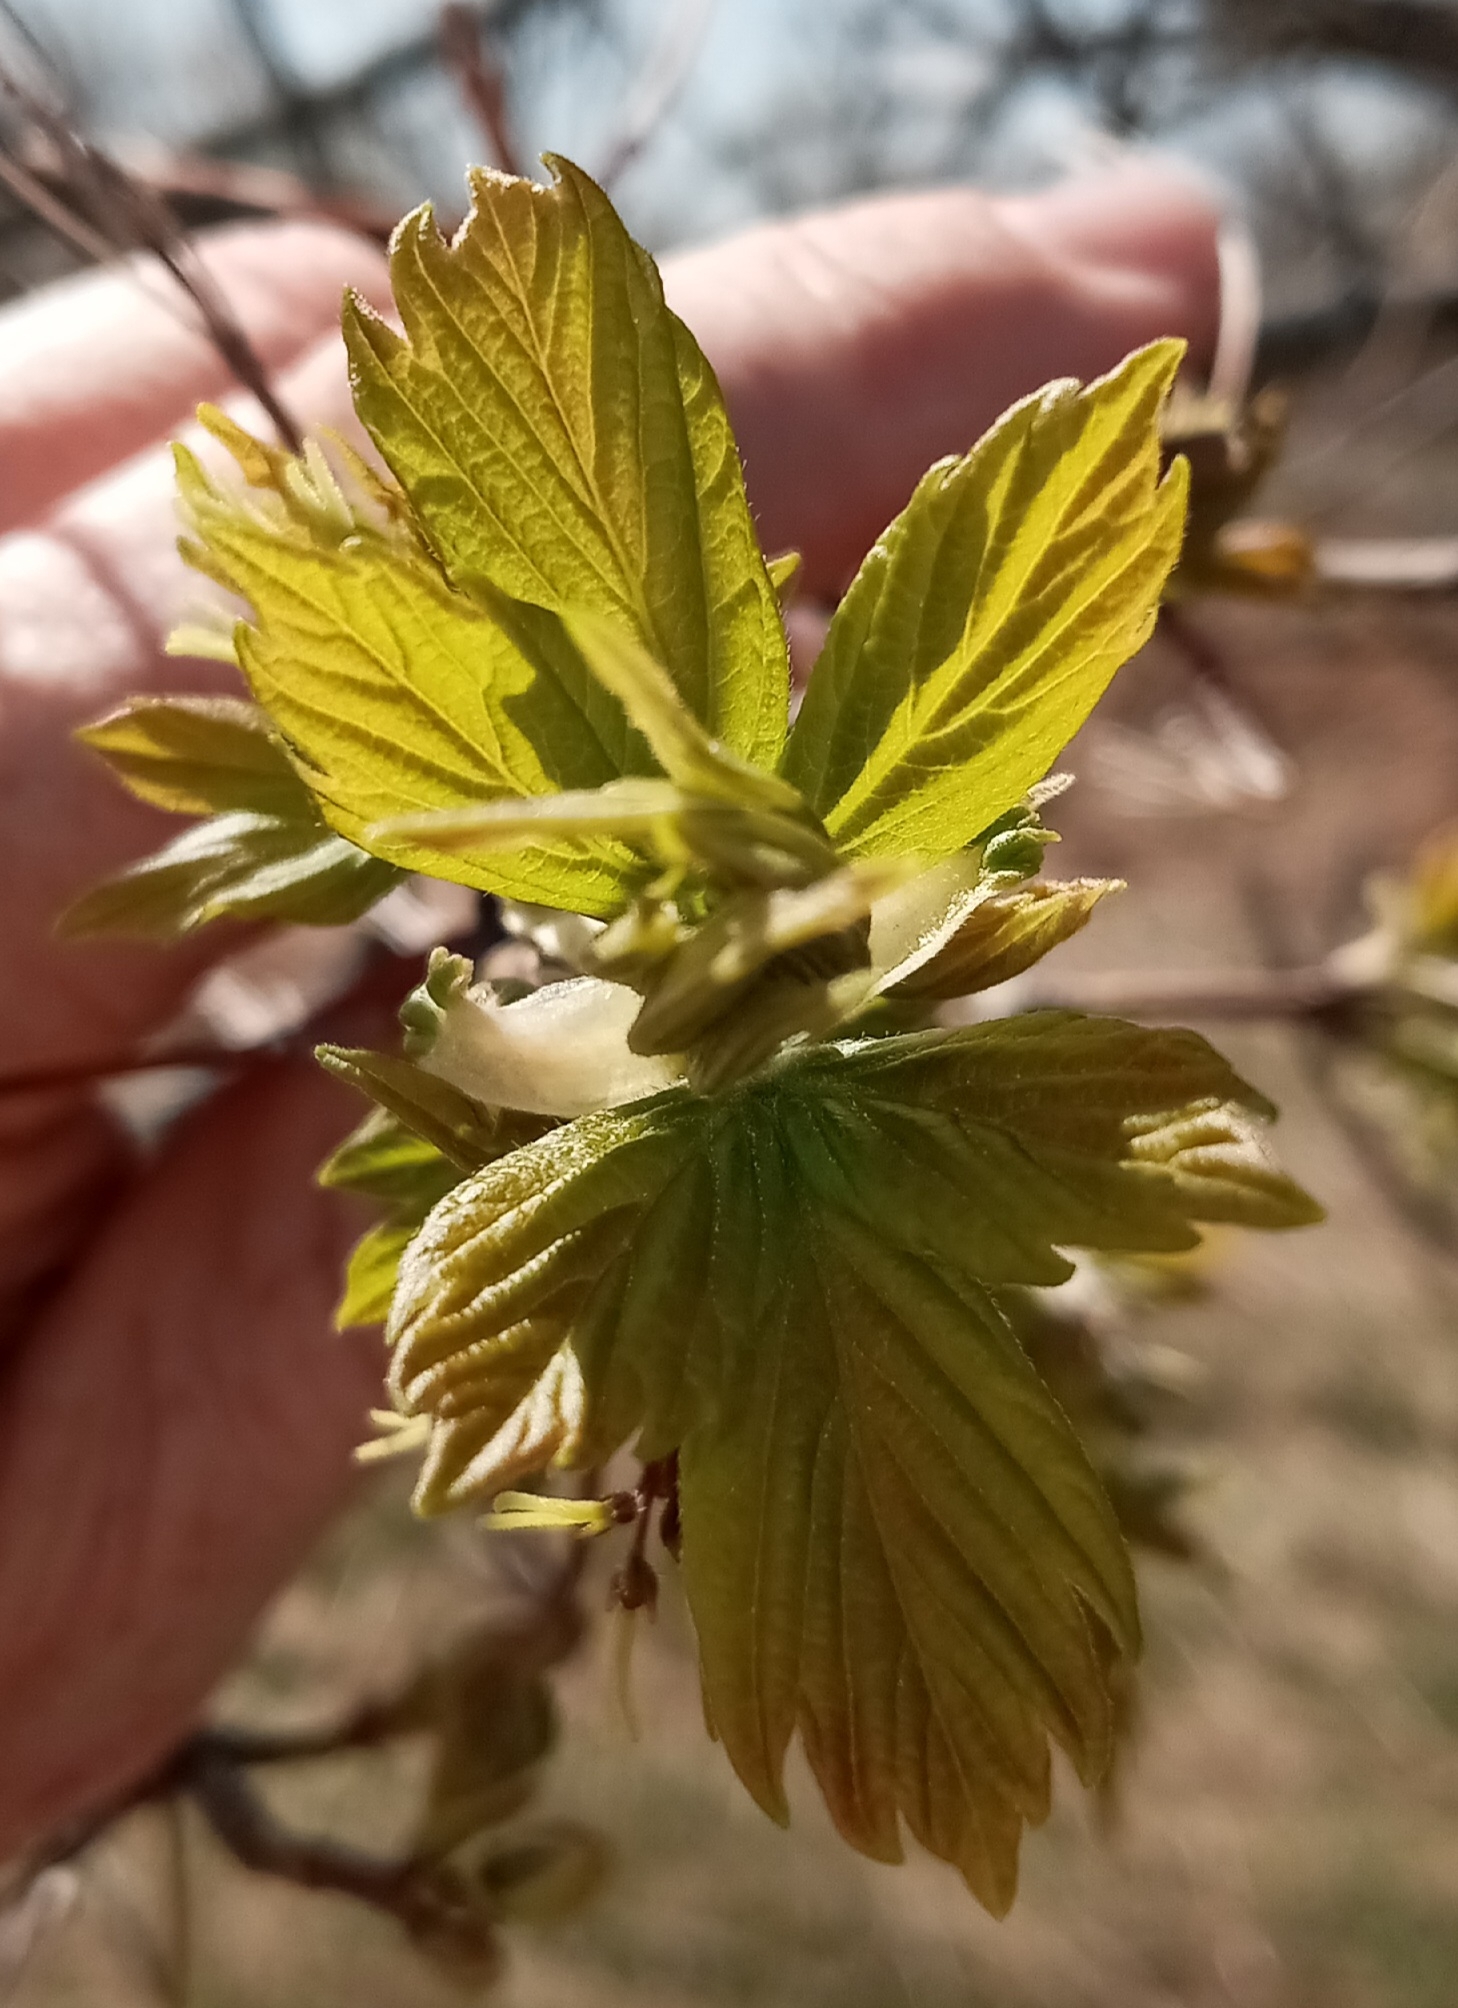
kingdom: Plantae
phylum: Tracheophyta
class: Magnoliopsida
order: Sapindales
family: Sapindaceae
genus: Acer
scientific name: Acer negundo
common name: Ashleaf maple
